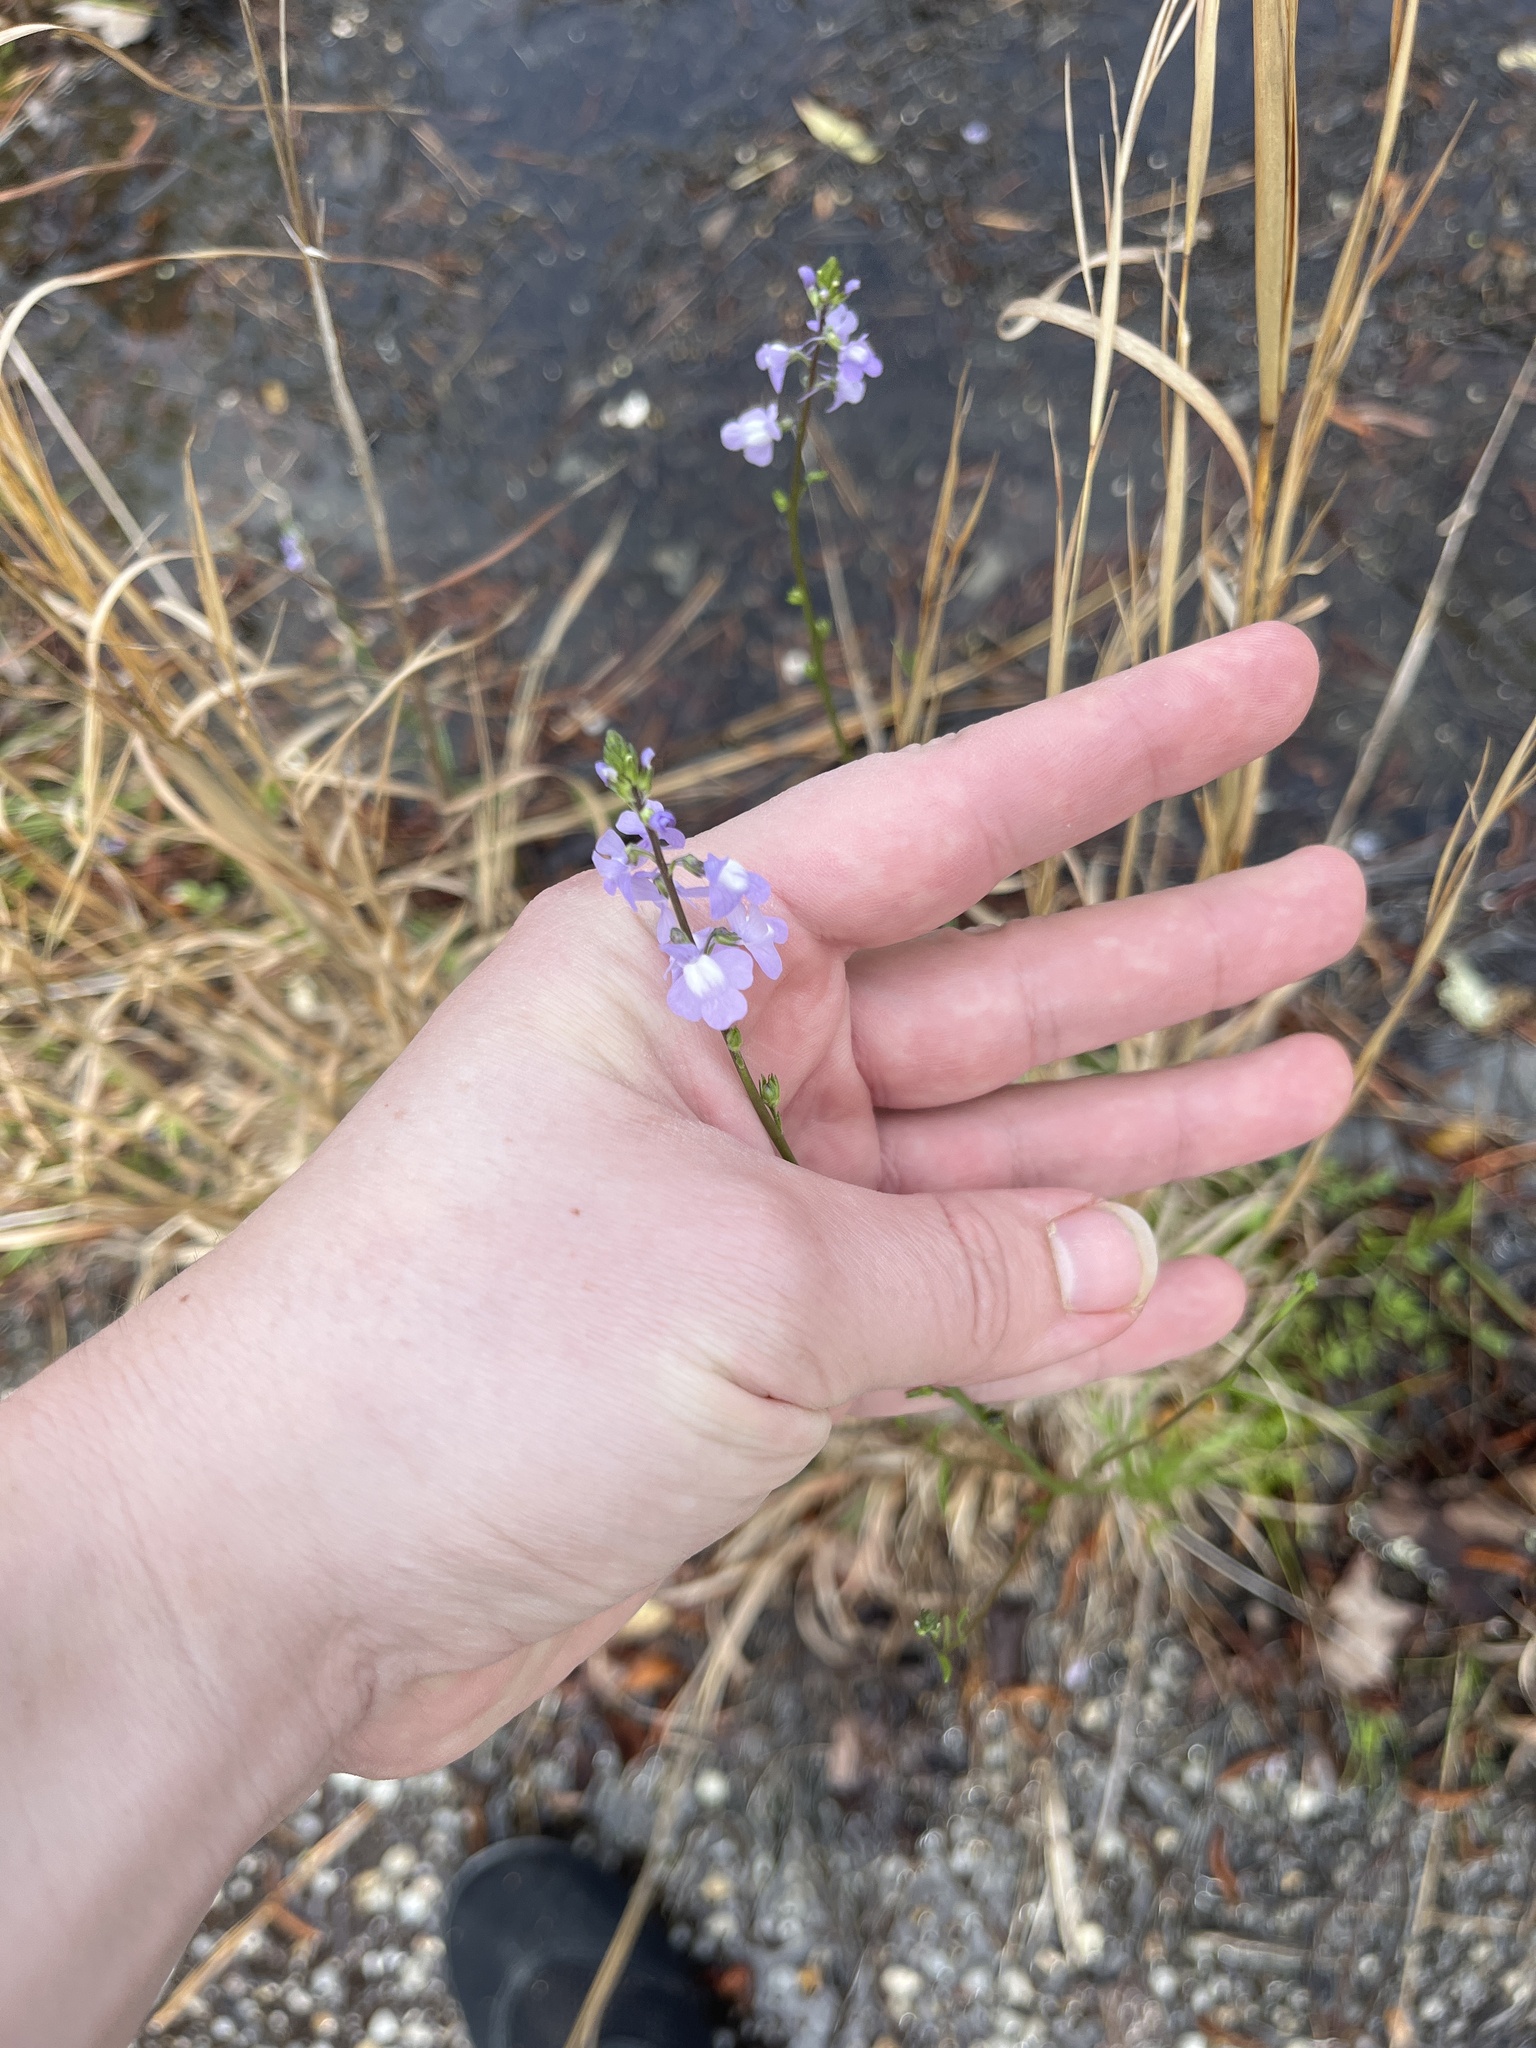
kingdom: Plantae
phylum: Tracheophyta
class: Magnoliopsida
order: Lamiales
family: Plantaginaceae
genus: Nuttallanthus
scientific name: Nuttallanthus canadensis
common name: Blue toadflax
